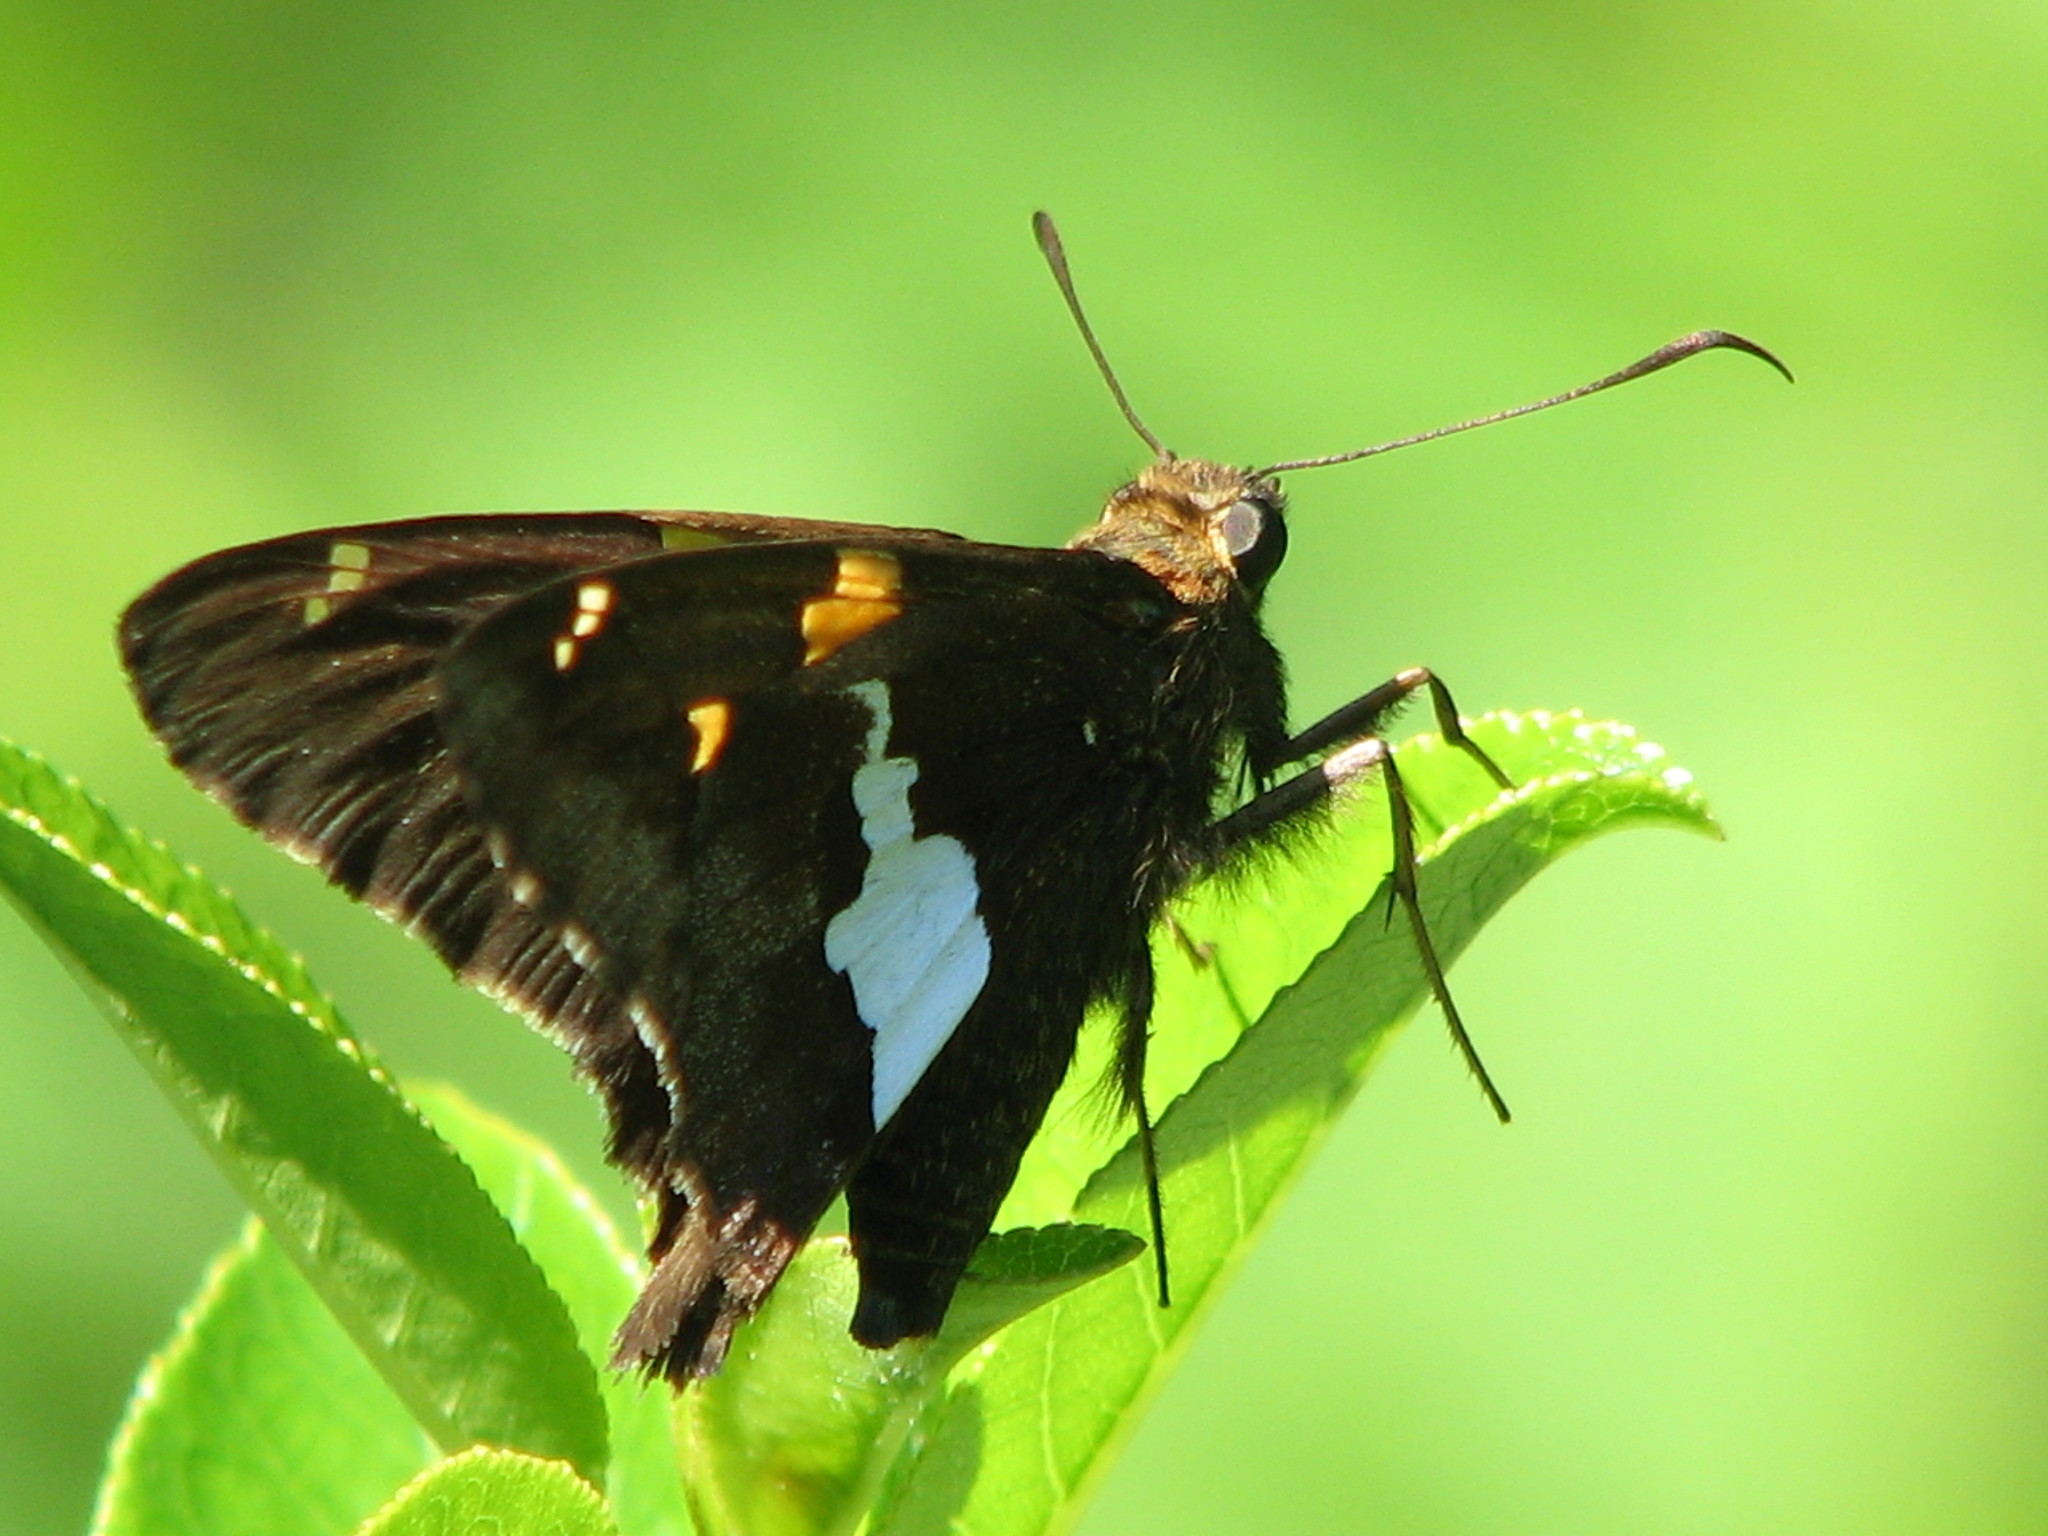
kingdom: Animalia
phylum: Arthropoda
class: Insecta
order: Lepidoptera
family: Hesperiidae
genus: Epargyreus
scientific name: Epargyreus clarus
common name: Silver-spotted skipper
